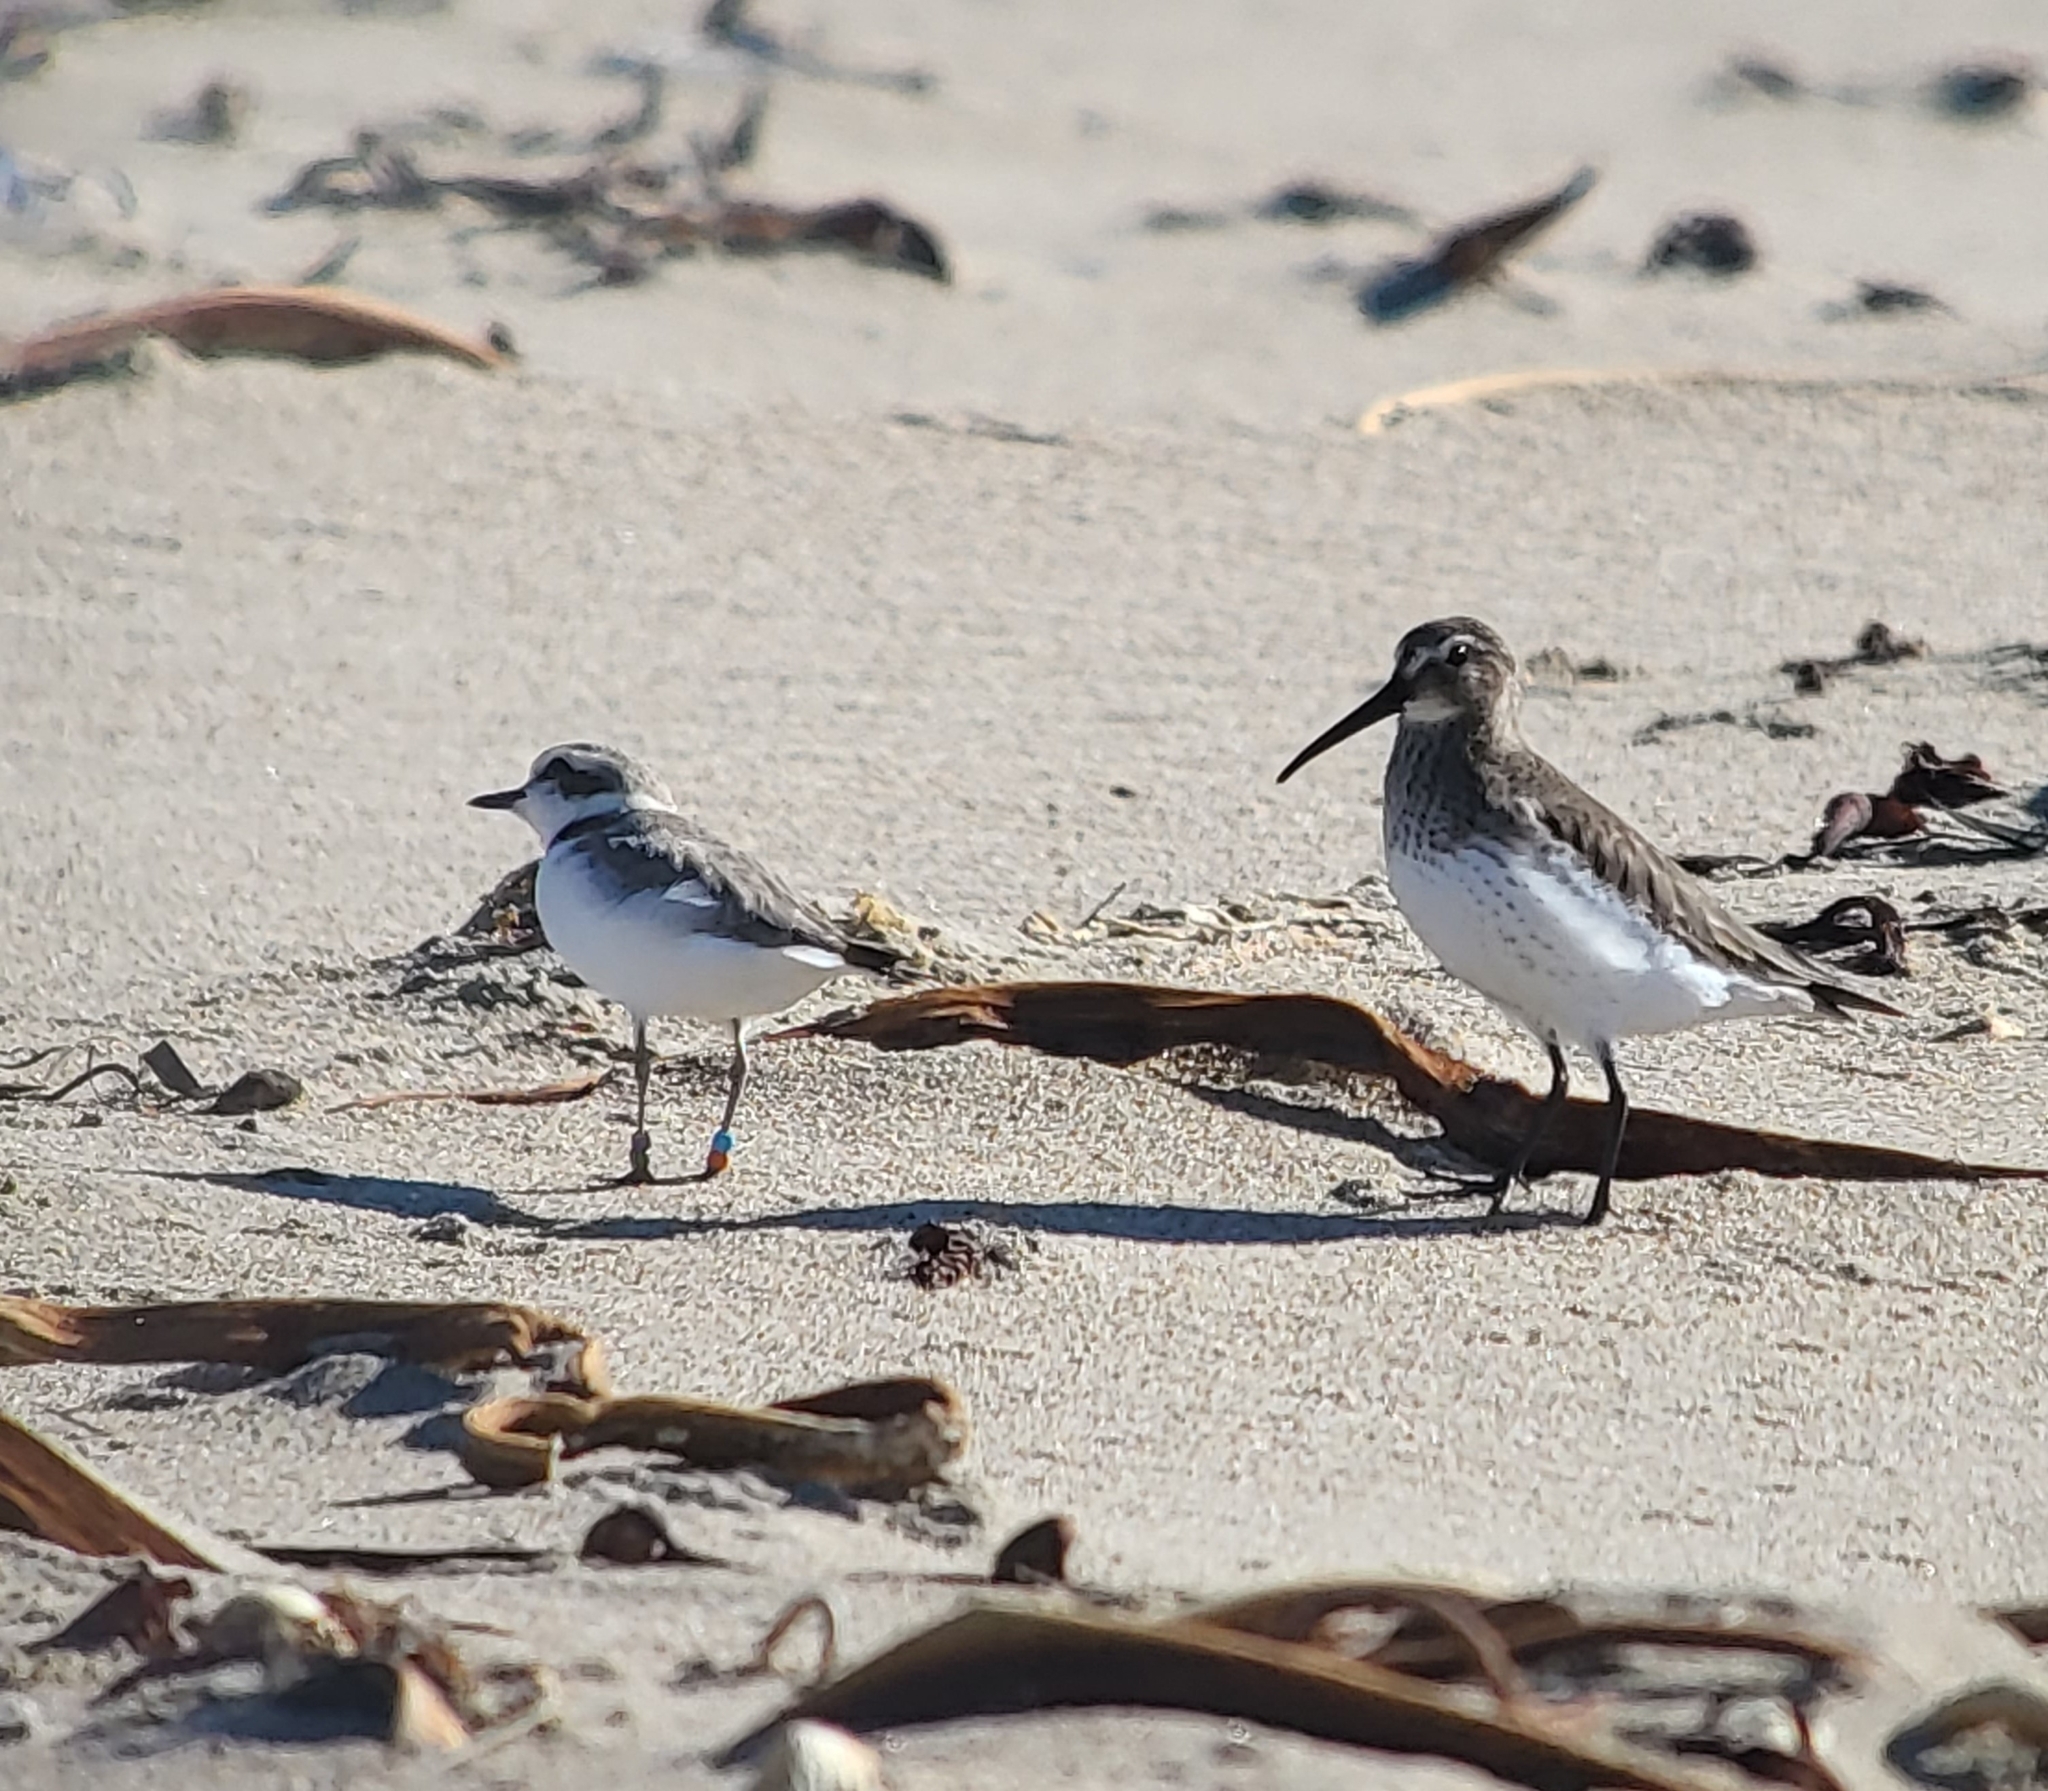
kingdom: Animalia
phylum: Chordata
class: Aves
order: Charadriiformes
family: Charadriidae
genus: Anarhynchus
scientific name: Anarhynchus
